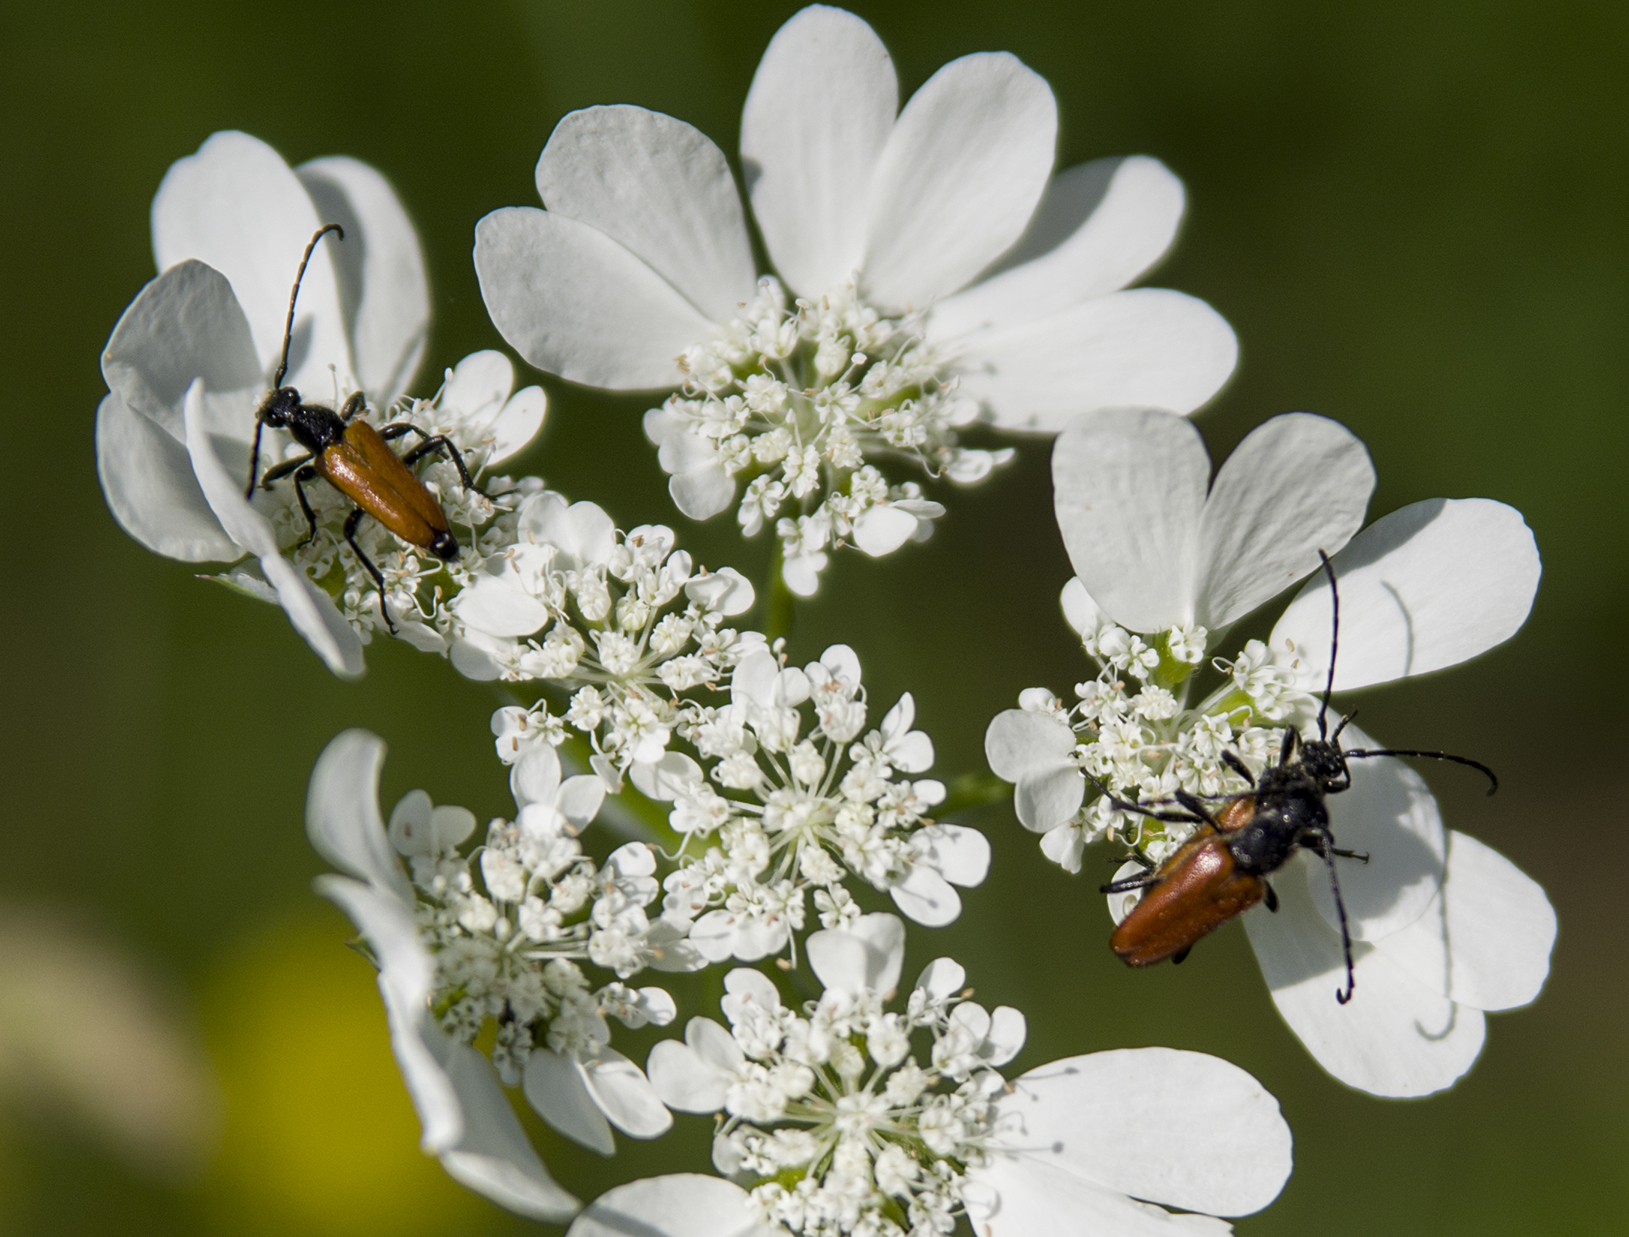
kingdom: Animalia
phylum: Arthropoda
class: Insecta
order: Coleoptera
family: Cerambycidae
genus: Paracorymbia
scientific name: Paracorymbia pallens
